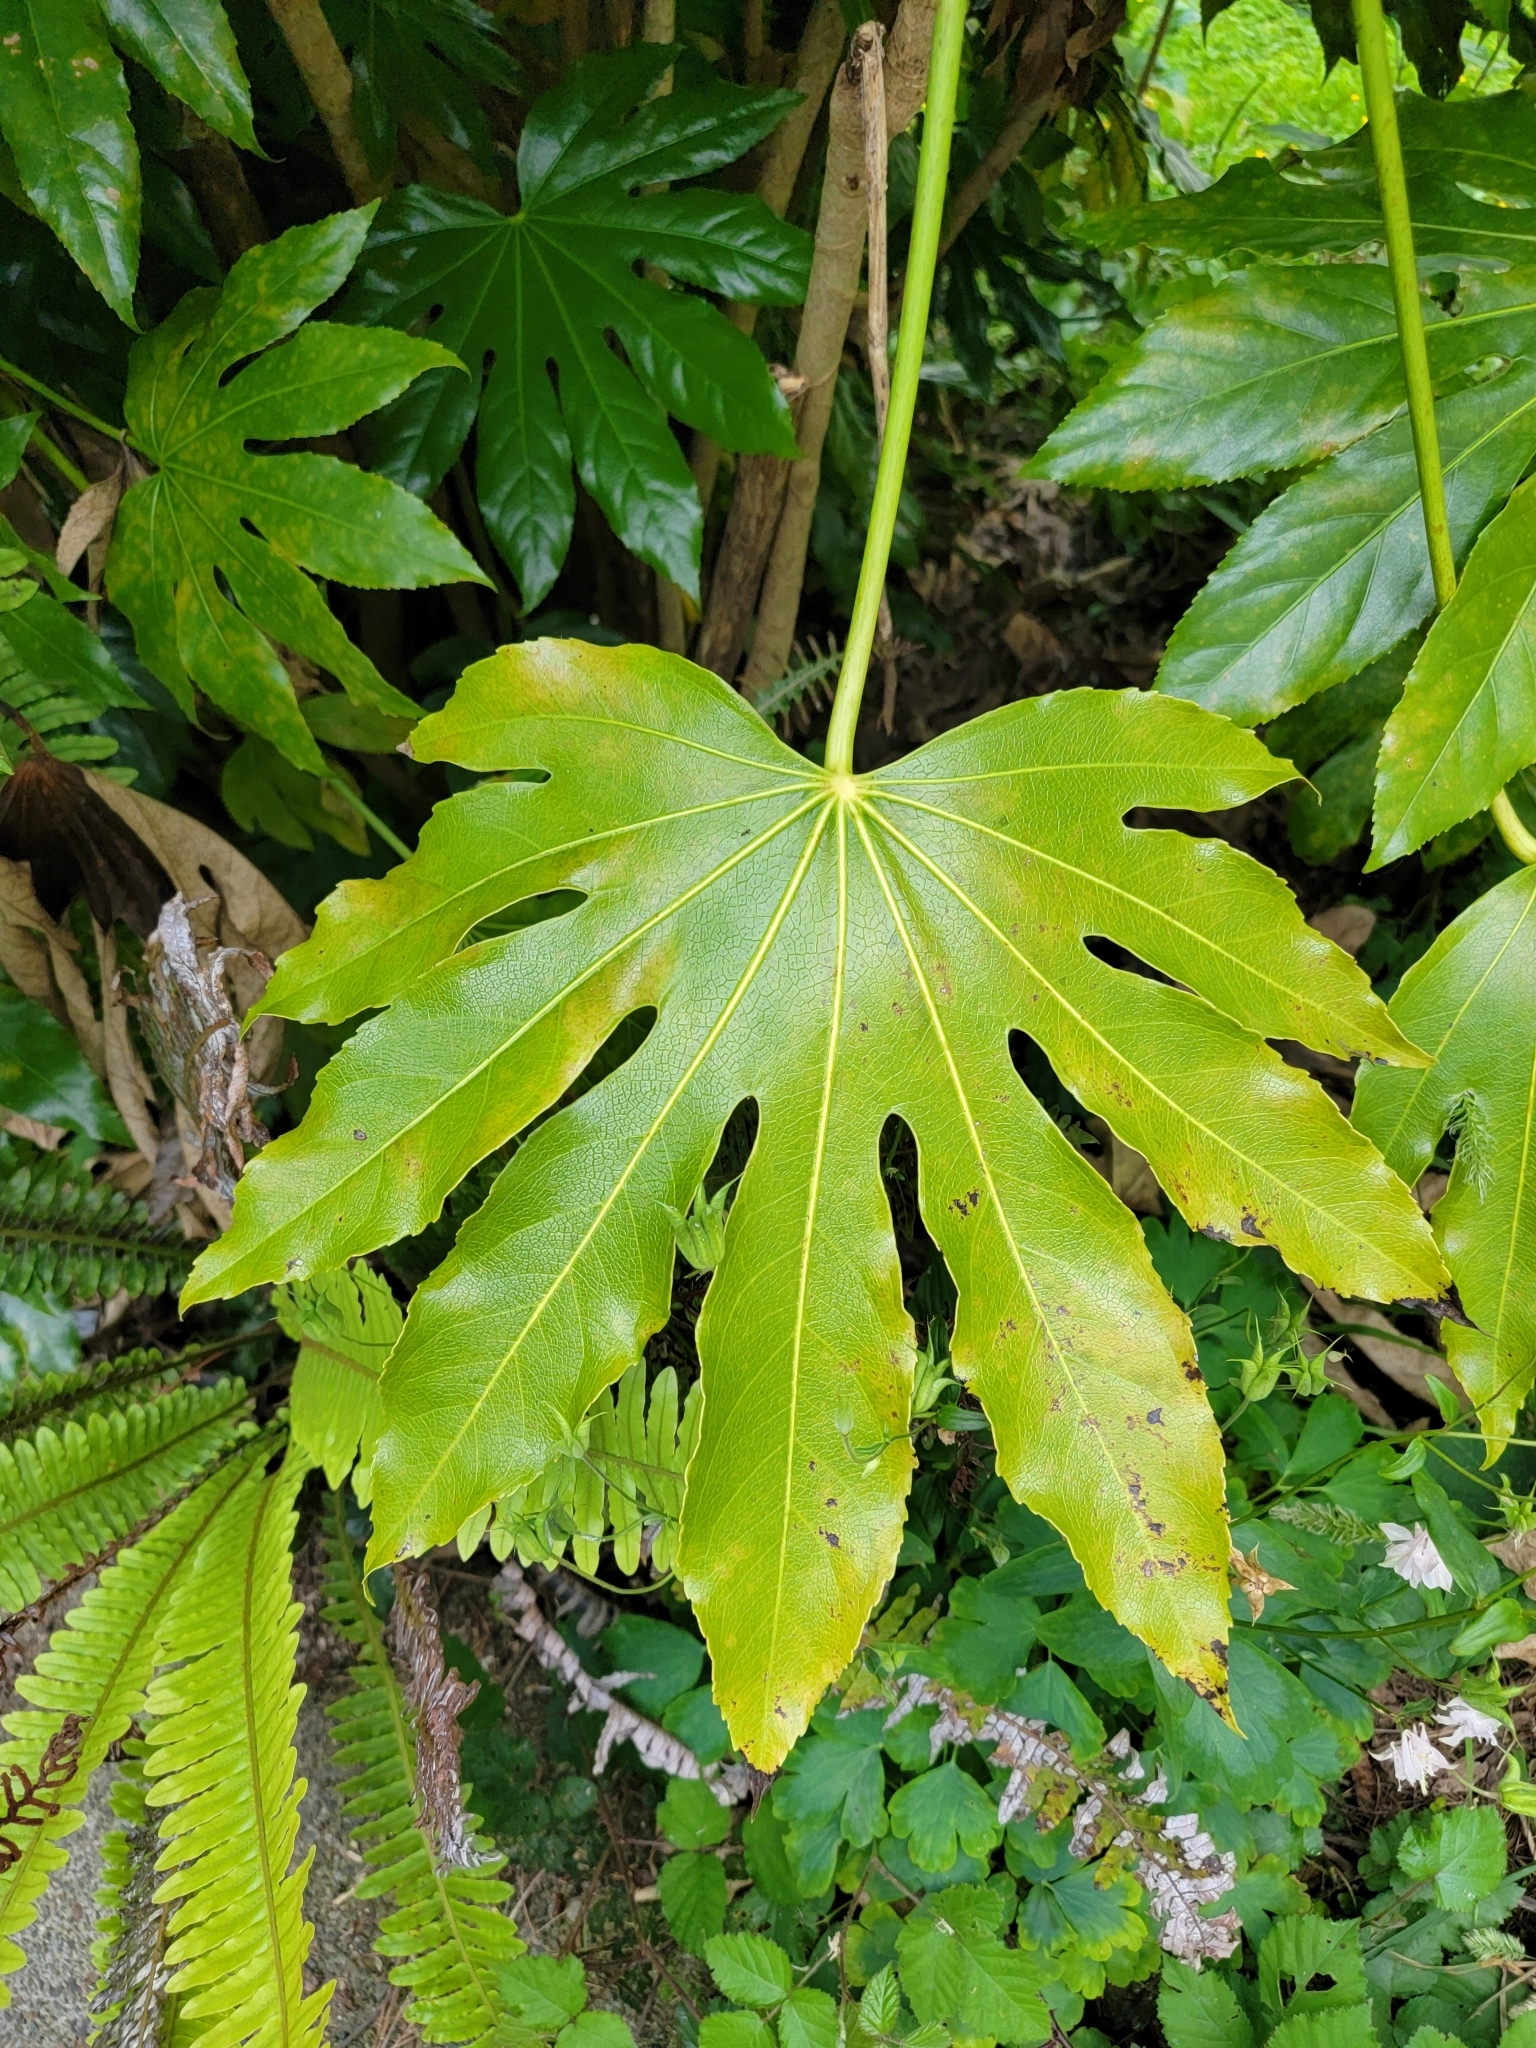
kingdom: Plantae
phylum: Tracheophyta
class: Magnoliopsida
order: Apiales
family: Araliaceae
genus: Fatsia
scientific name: Fatsia japonica
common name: Fatsia
